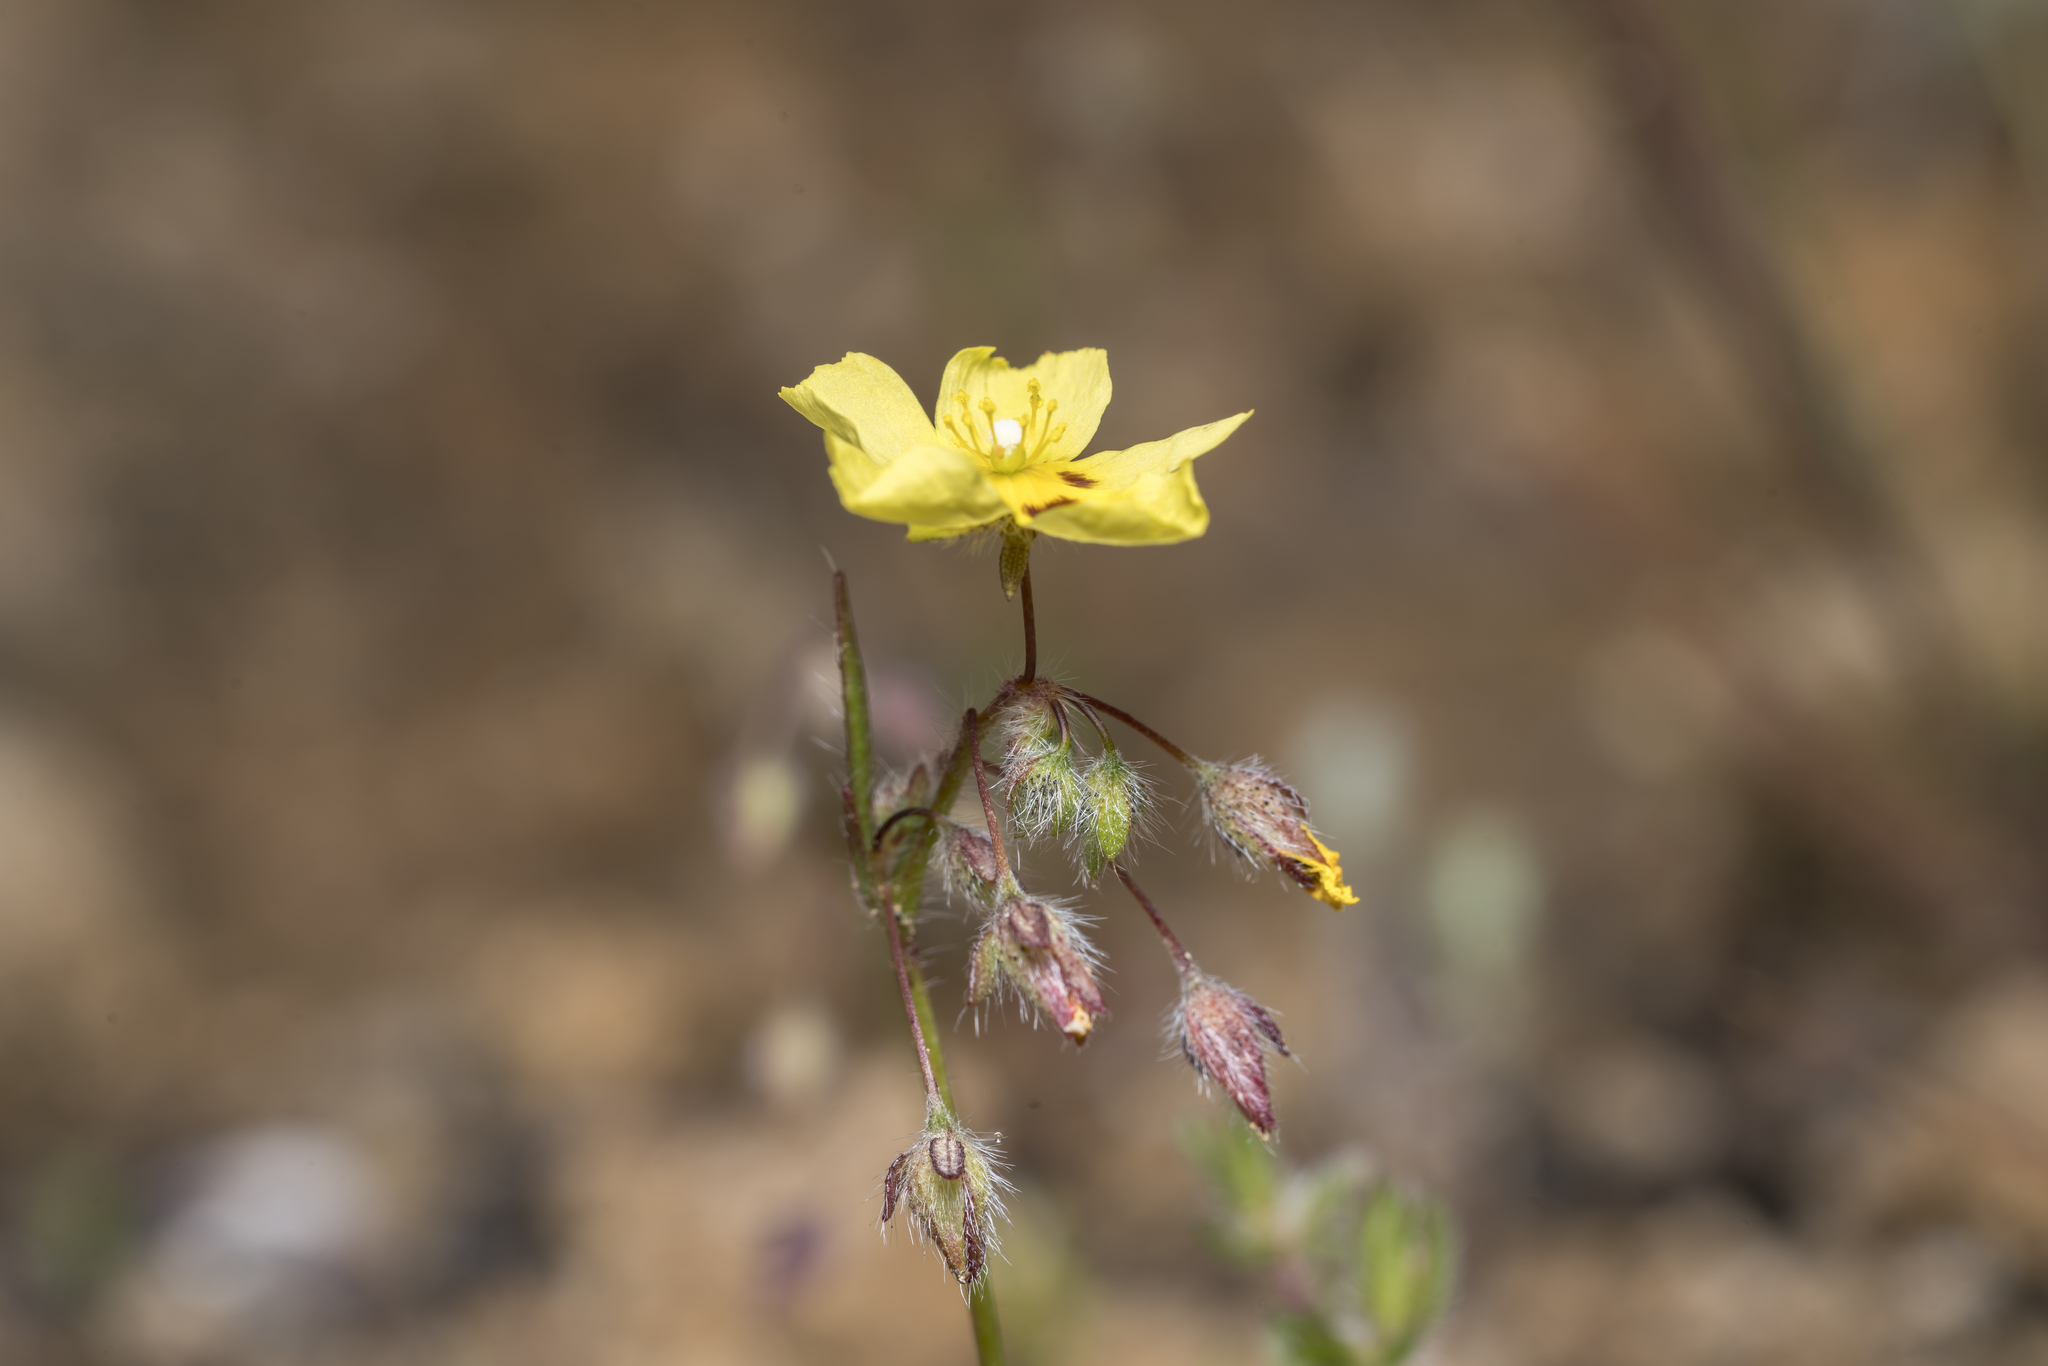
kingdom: Plantae
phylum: Tracheophyta
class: Magnoliopsida
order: Malvales
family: Cistaceae
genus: Tuberaria
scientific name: Tuberaria guttata
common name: Spotted rock-rose
